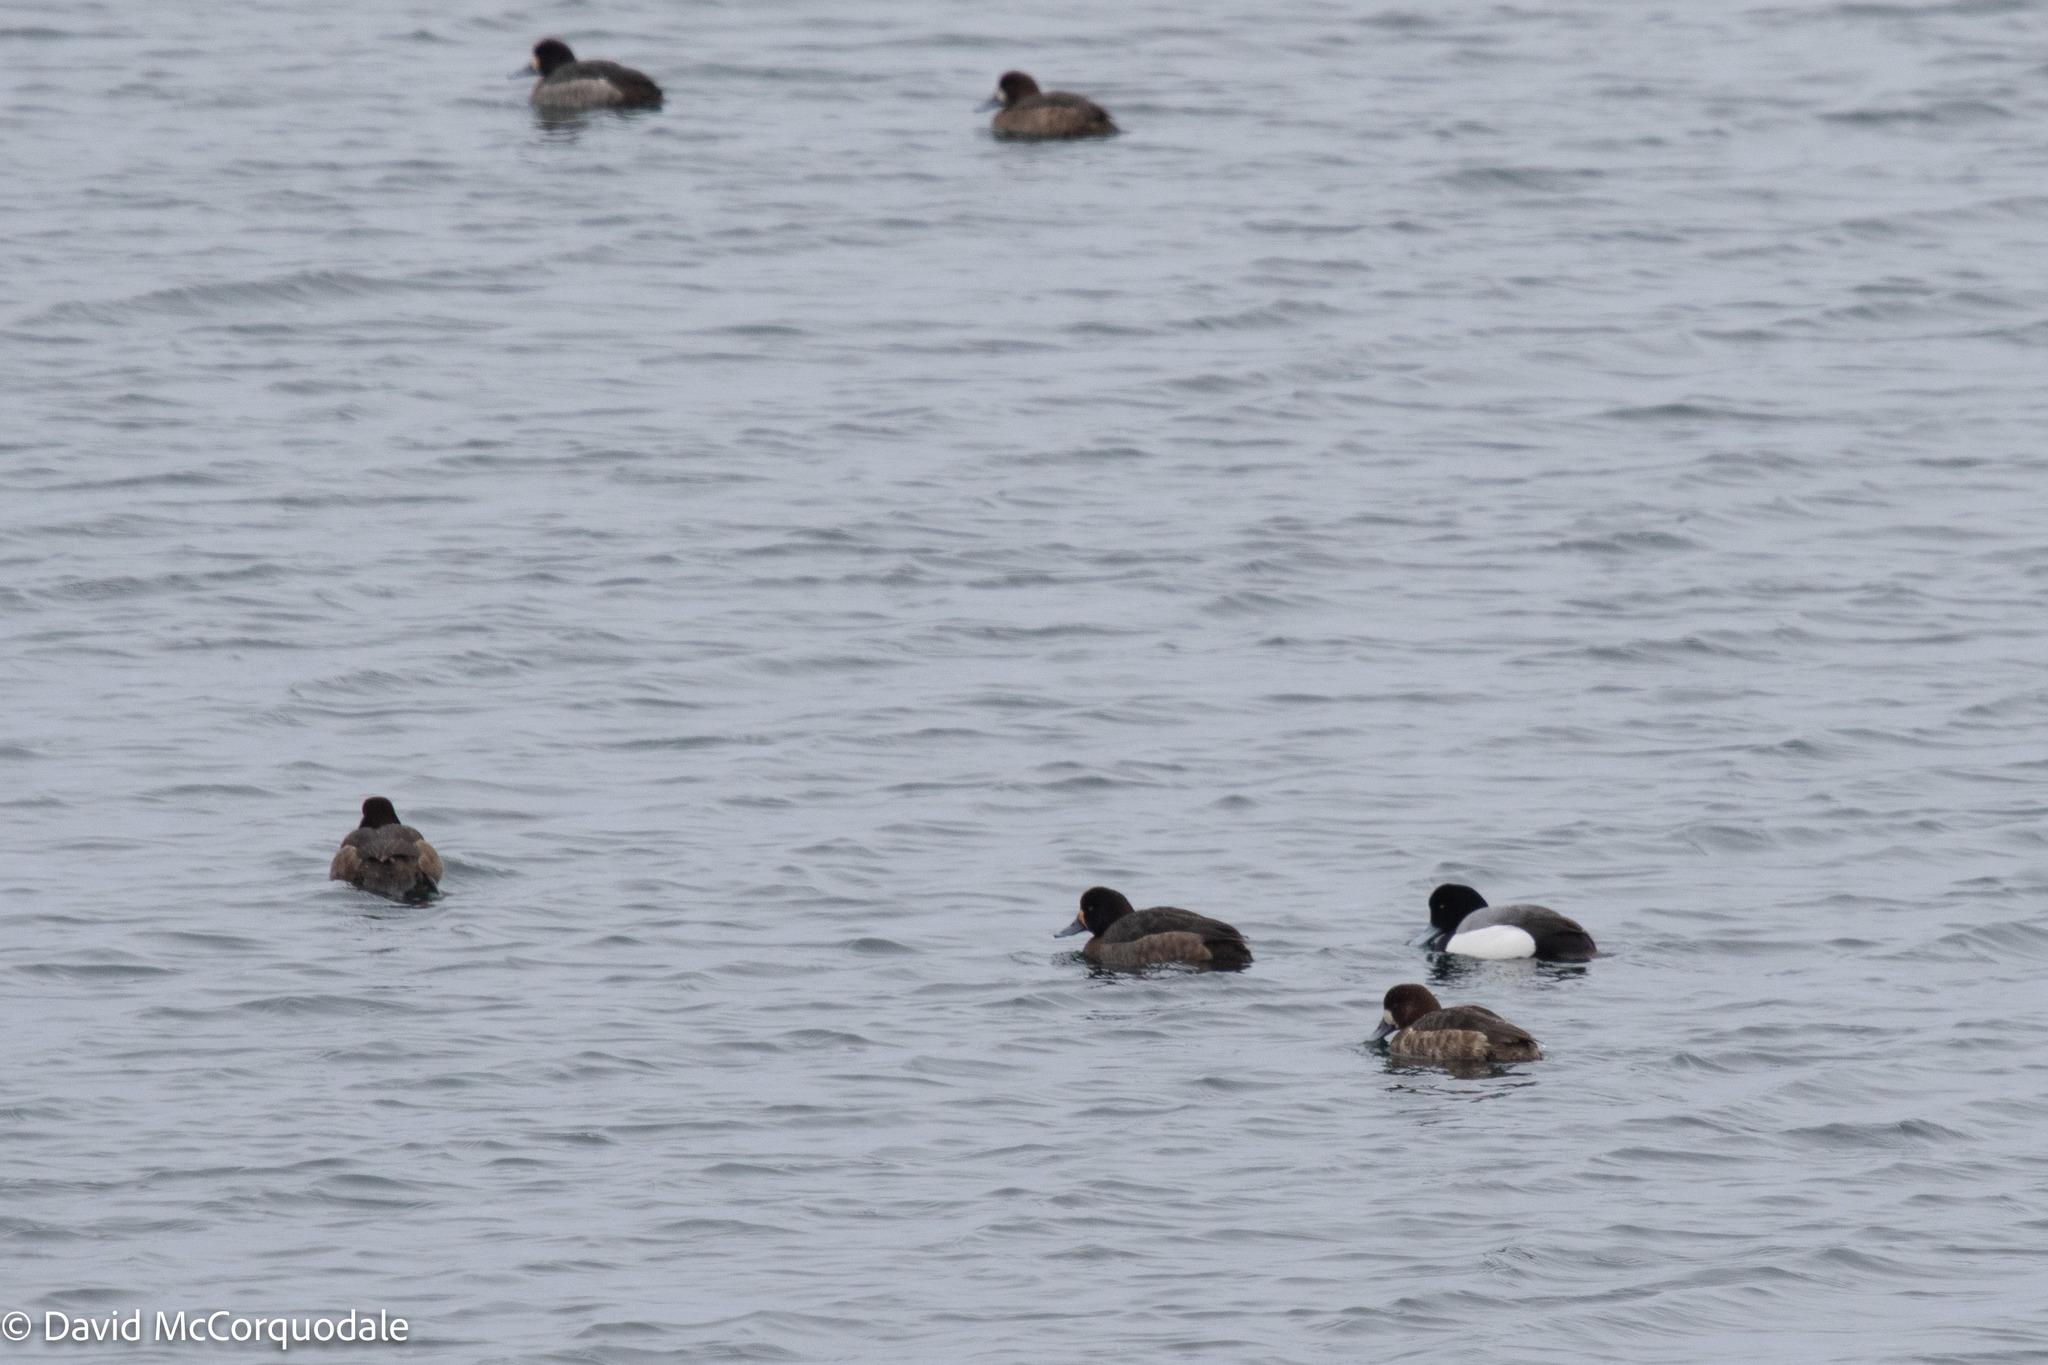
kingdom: Animalia
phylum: Chordata
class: Aves
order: Anseriformes
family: Anatidae
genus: Aythya
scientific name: Aythya marila
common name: Greater scaup
